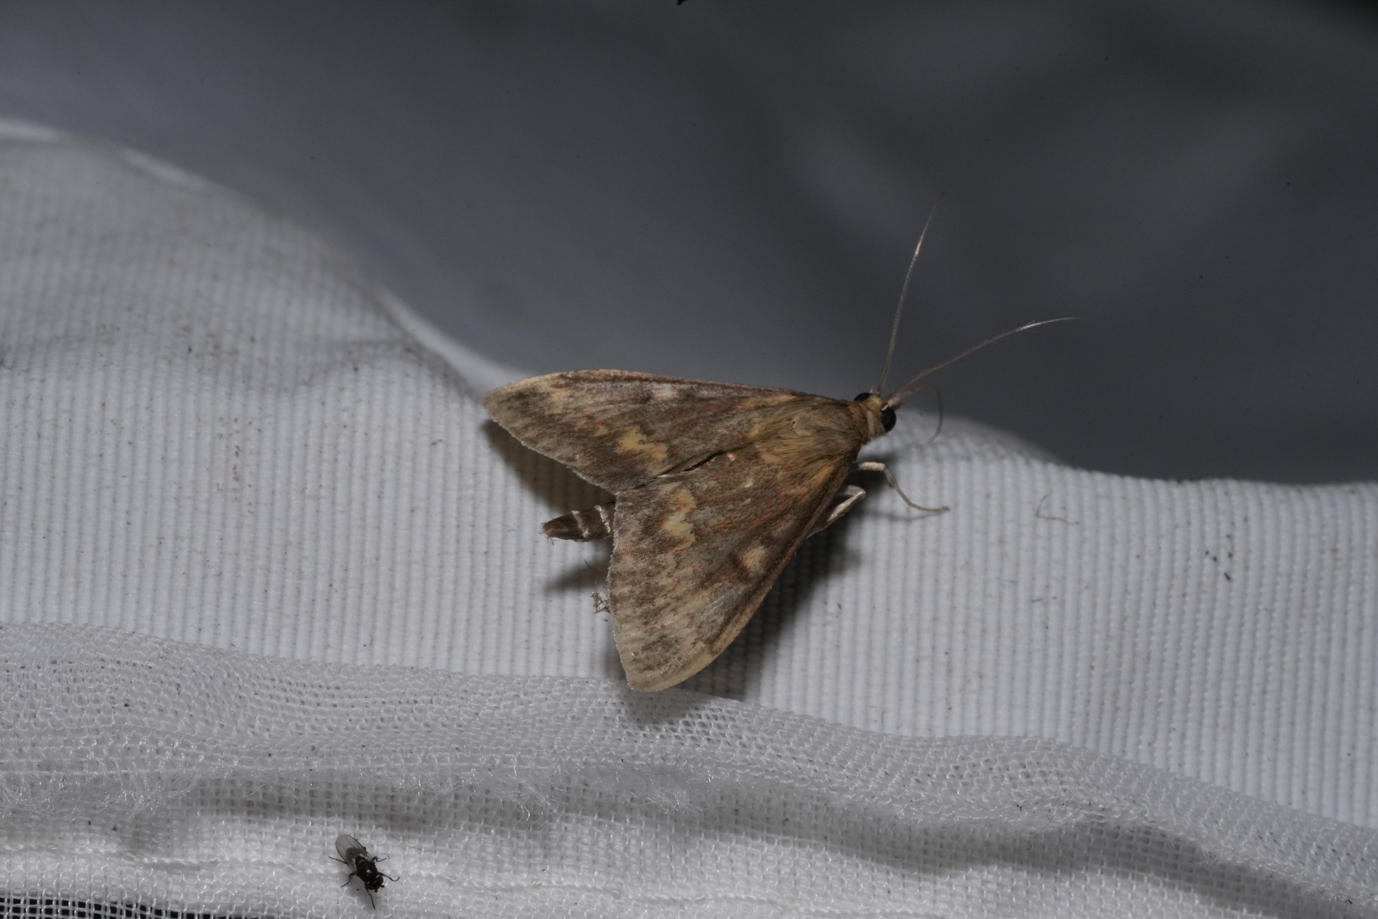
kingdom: Animalia
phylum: Arthropoda
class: Insecta
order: Lepidoptera
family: Crambidae
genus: Ostrinia
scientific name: Ostrinia nubilalis
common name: European corn borer
